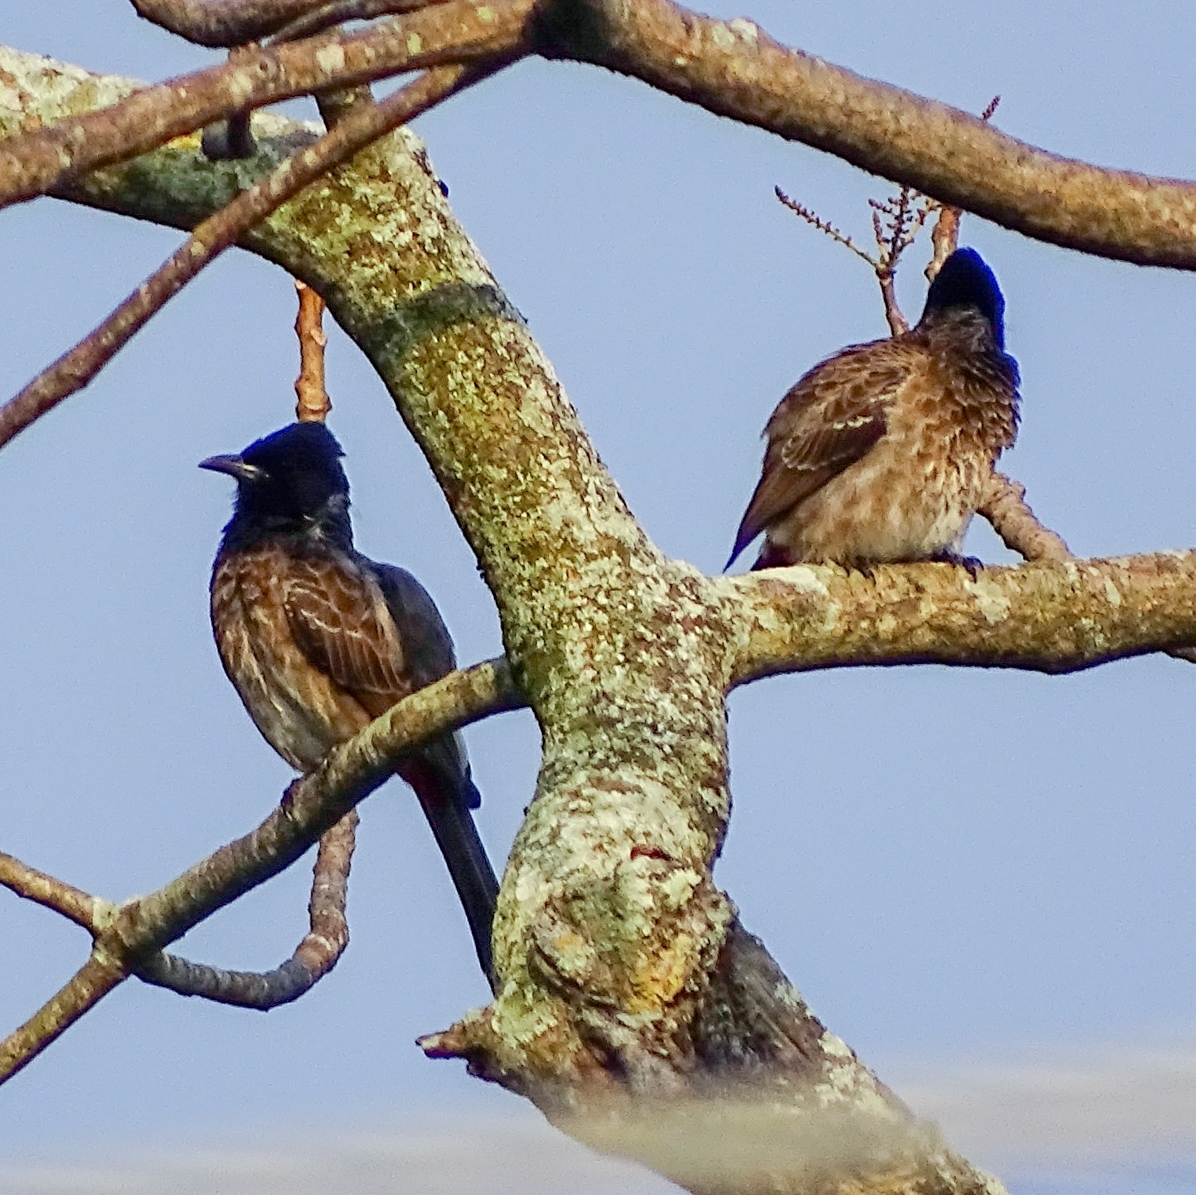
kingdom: Animalia
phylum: Chordata
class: Aves
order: Passeriformes
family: Pycnonotidae
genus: Pycnonotus
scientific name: Pycnonotus cafer
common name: Red-vented bulbul
